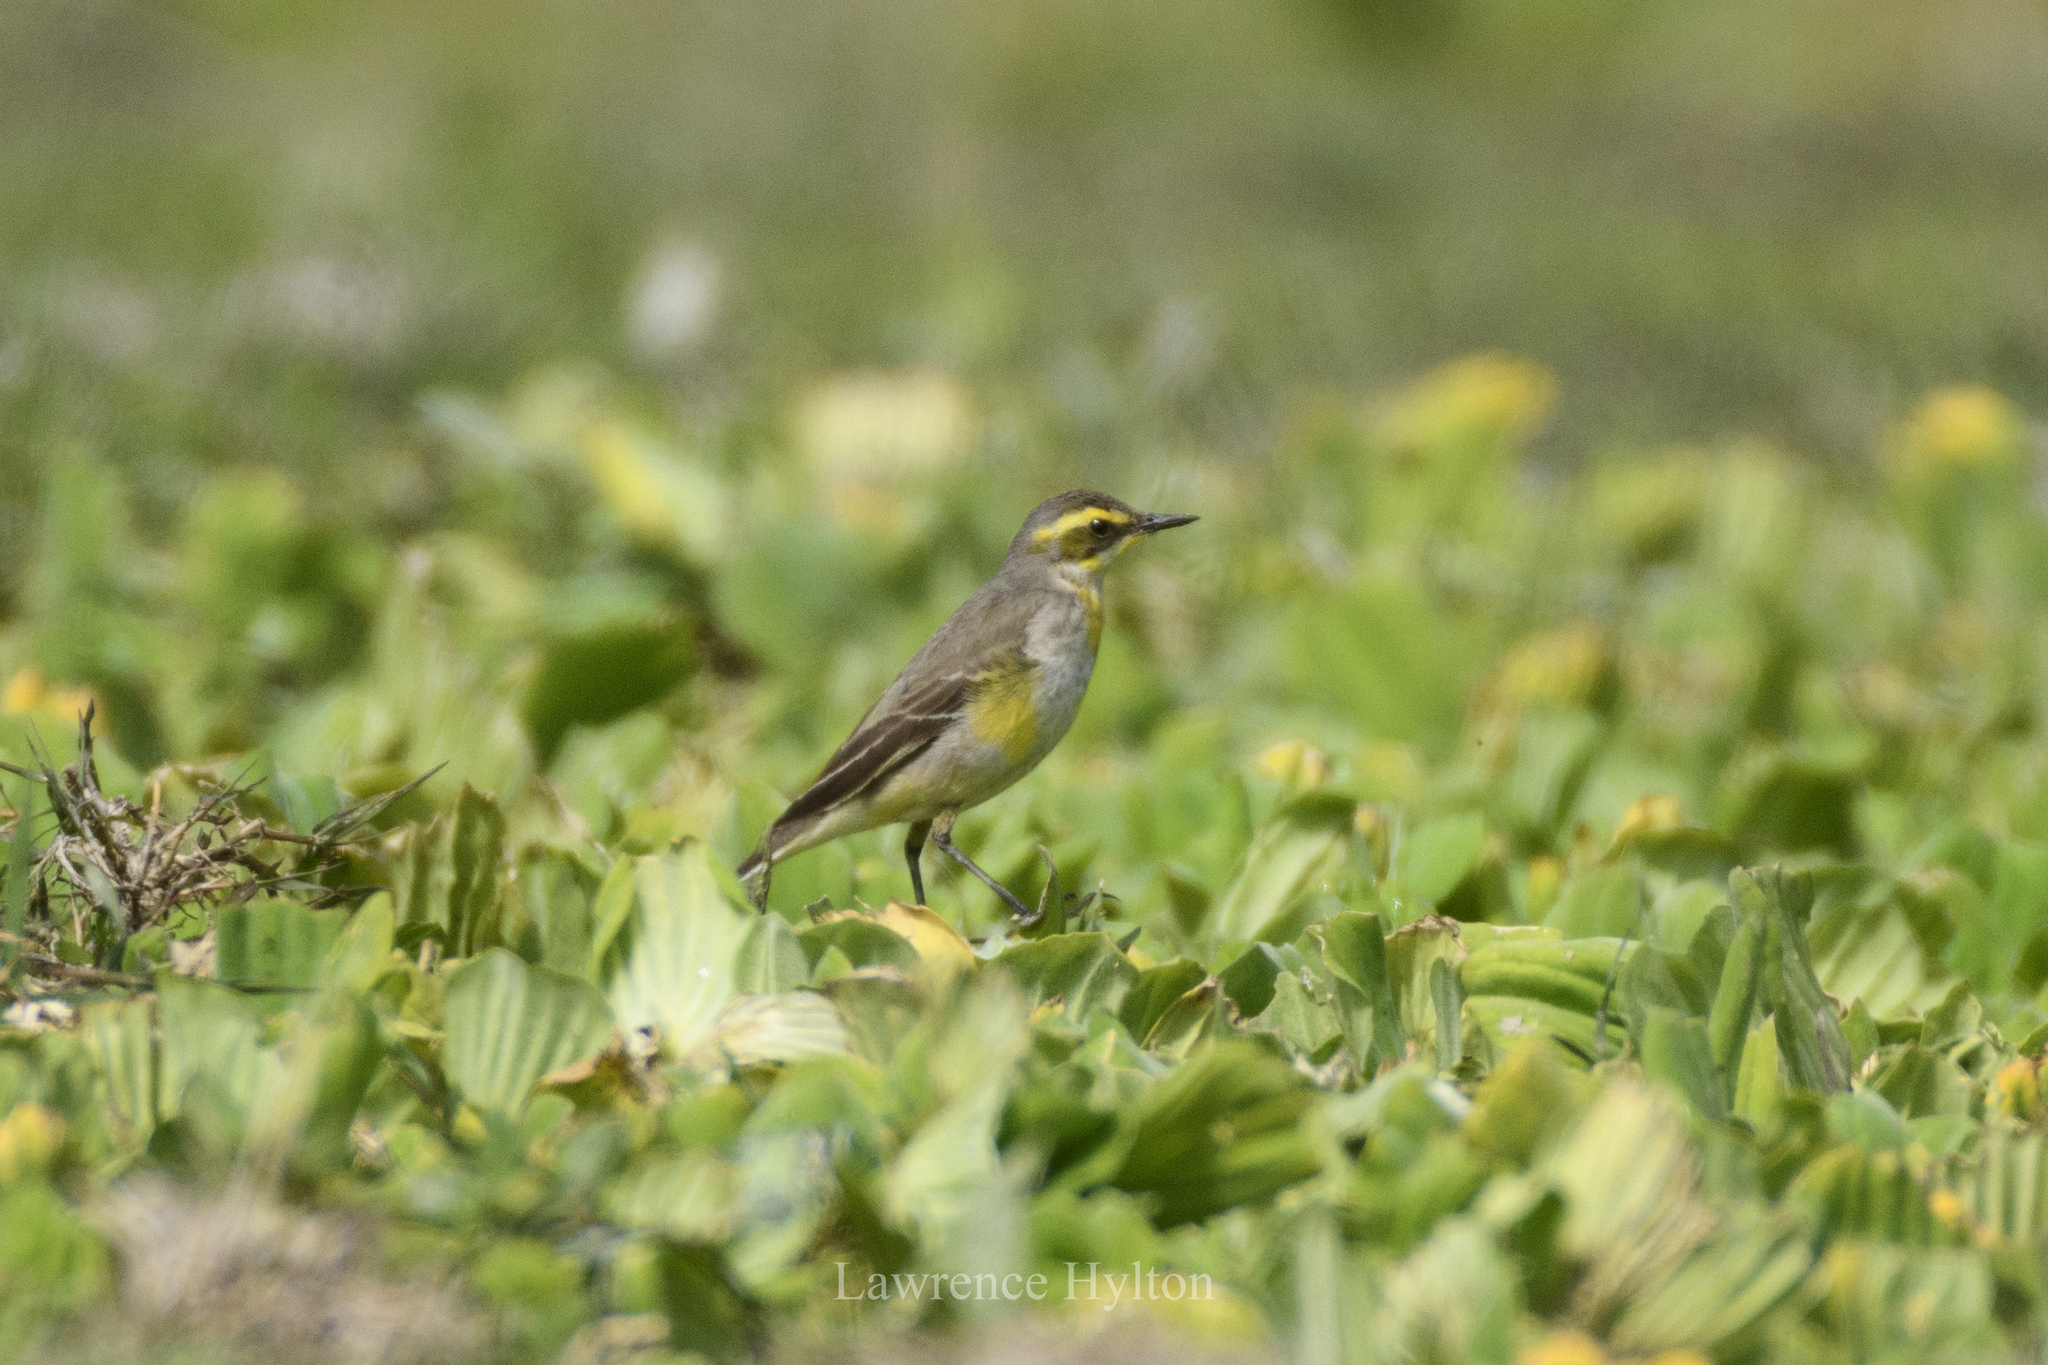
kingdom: Animalia
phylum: Chordata
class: Aves
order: Passeriformes
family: Motacillidae
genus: Motacilla
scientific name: Motacilla tschutschensis
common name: Eastern yellow wagtail
